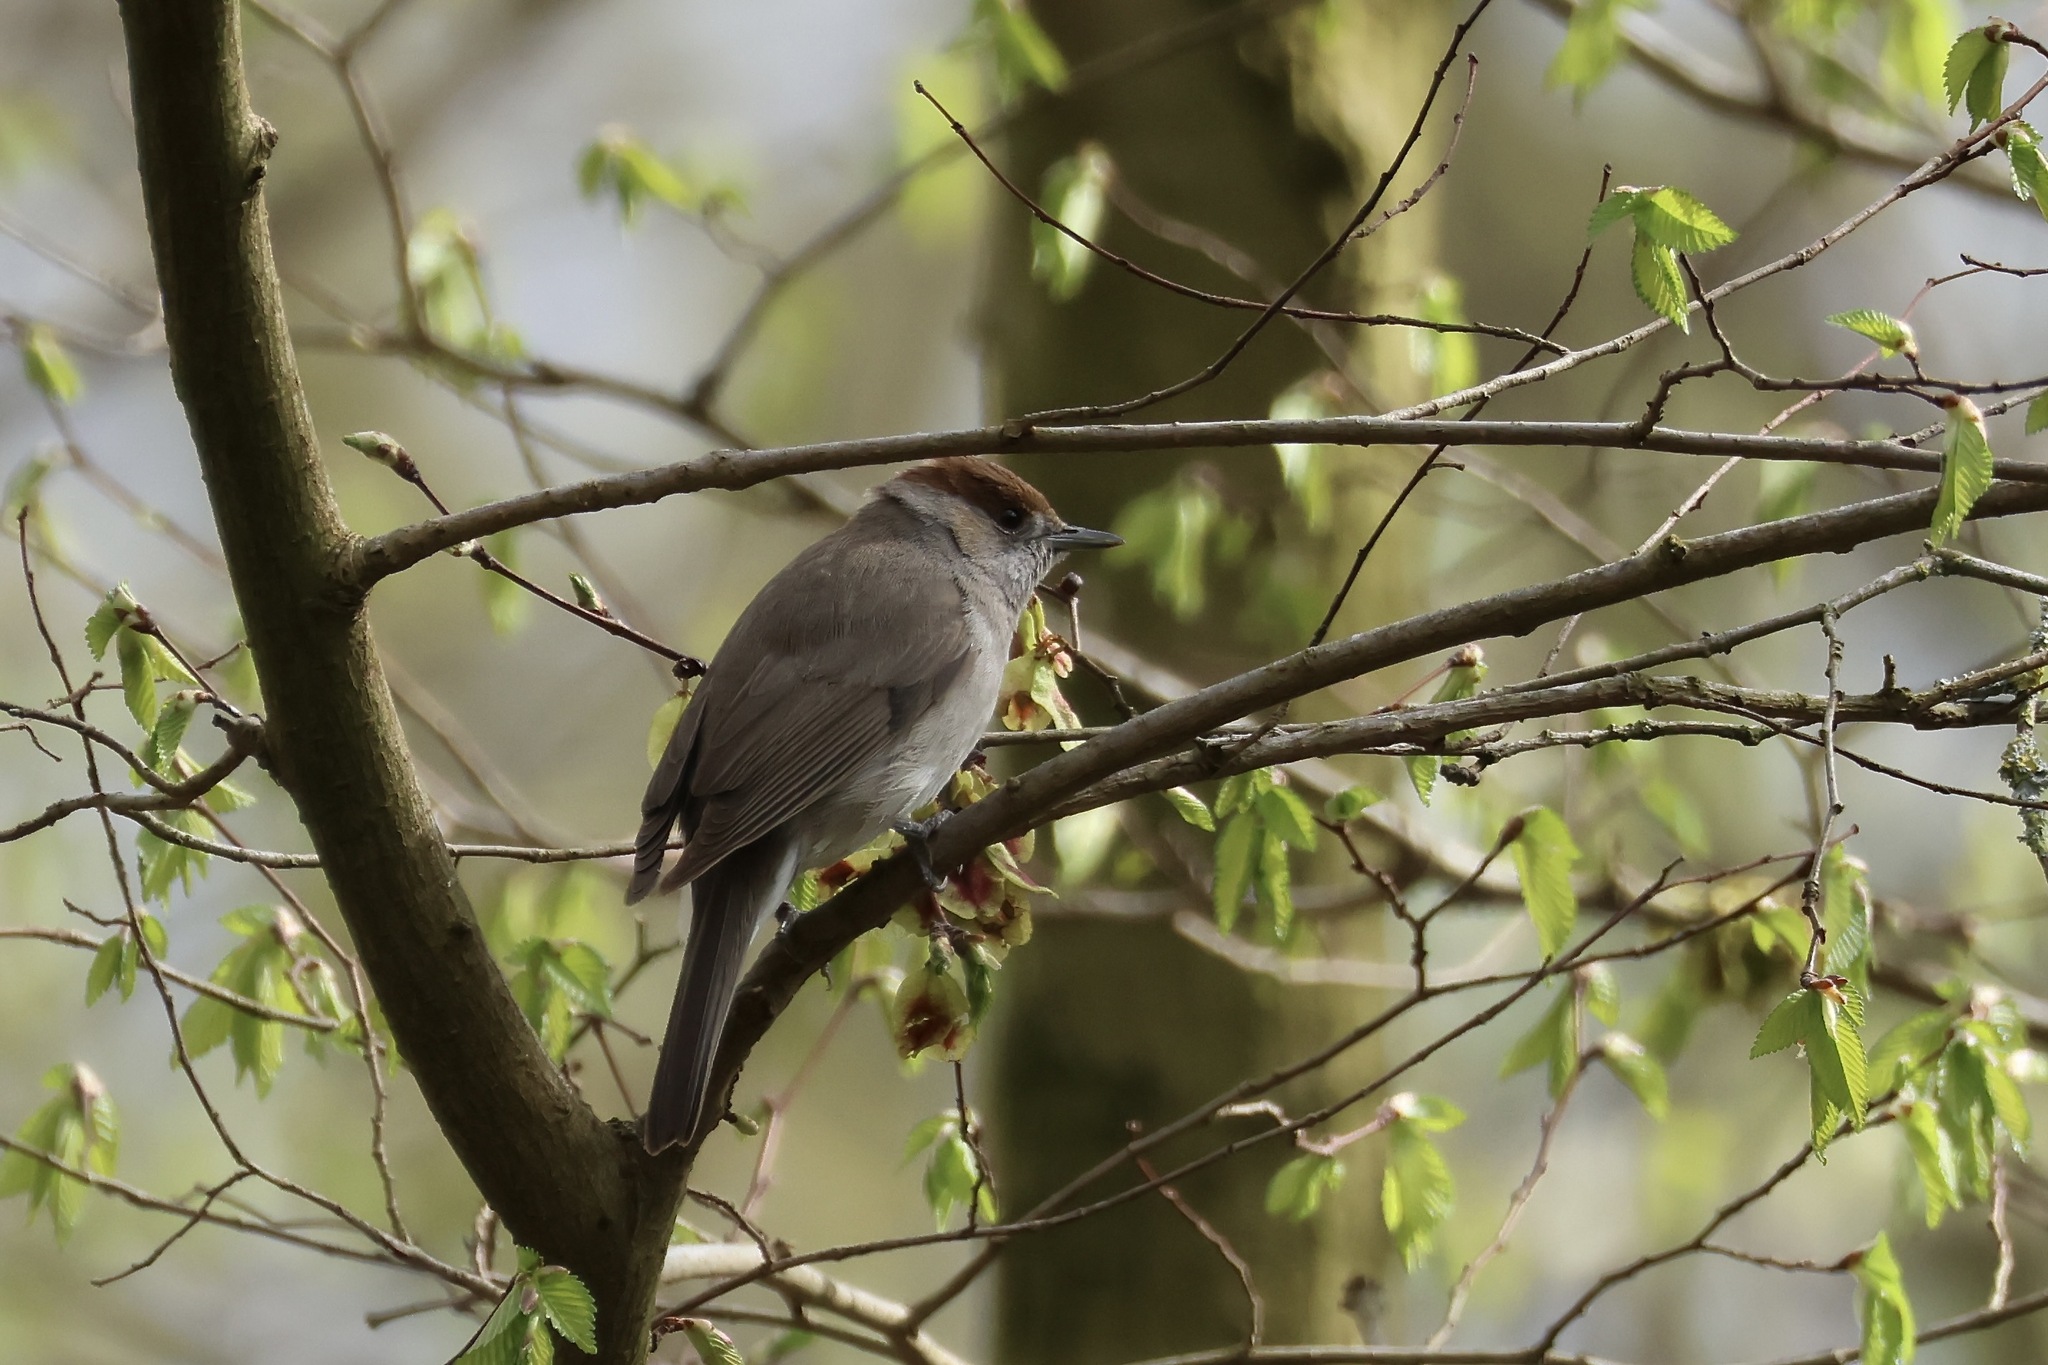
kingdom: Animalia
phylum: Chordata
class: Aves
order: Passeriformes
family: Sylviidae
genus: Sylvia
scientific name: Sylvia atricapilla
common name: Eurasian blackcap
